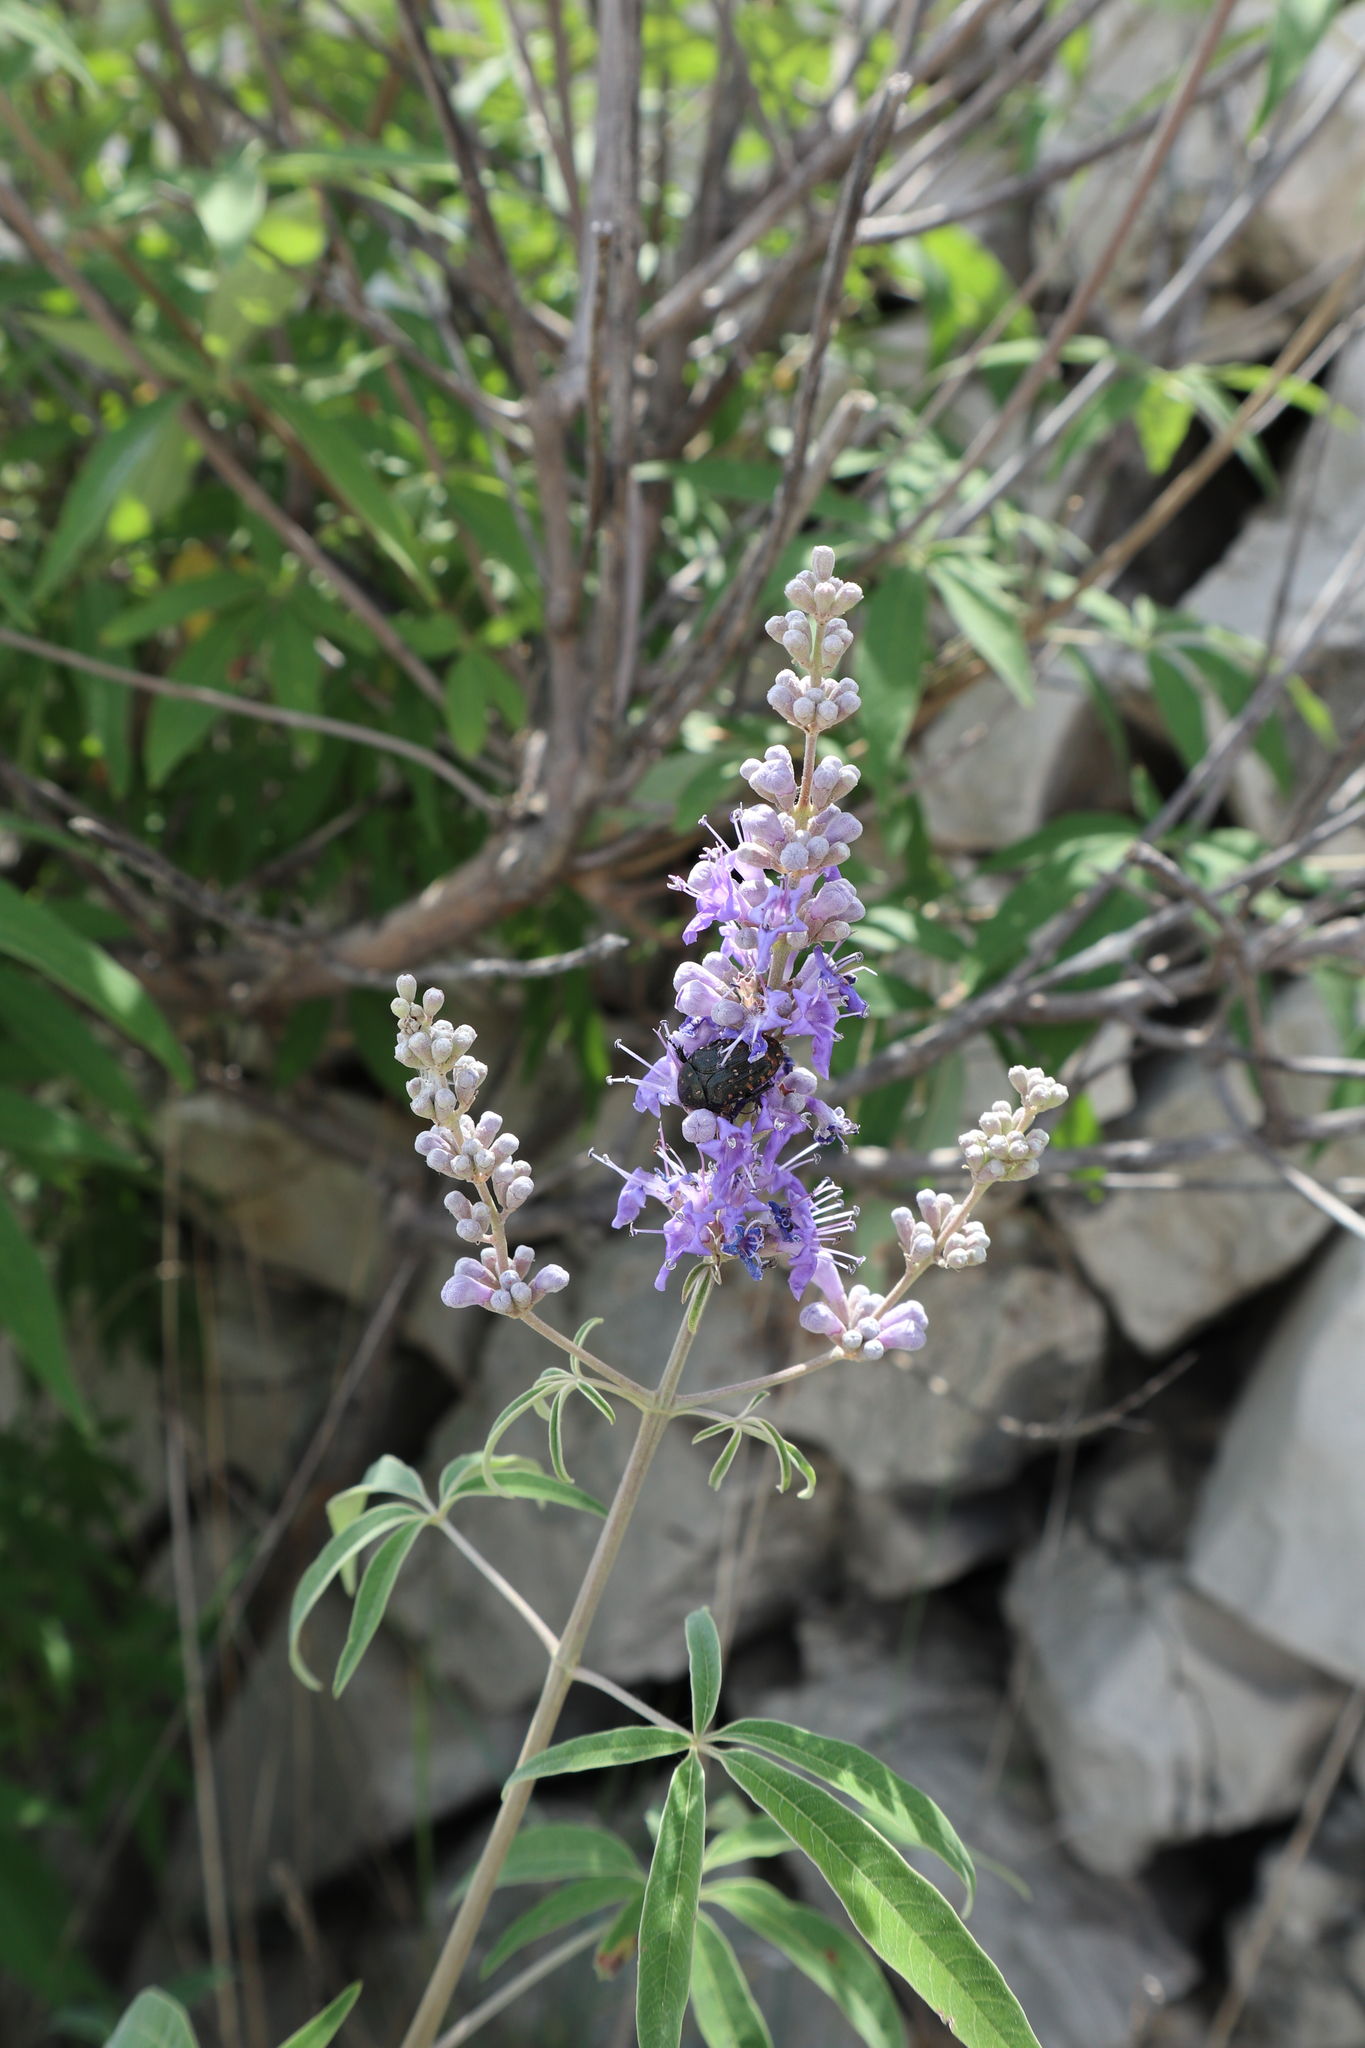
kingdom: Plantae
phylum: Tracheophyta
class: Magnoliopsida
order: Lamiales
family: Lamiaceae
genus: Vitex
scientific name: Vitex agnus-castus
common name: Chasteberry
